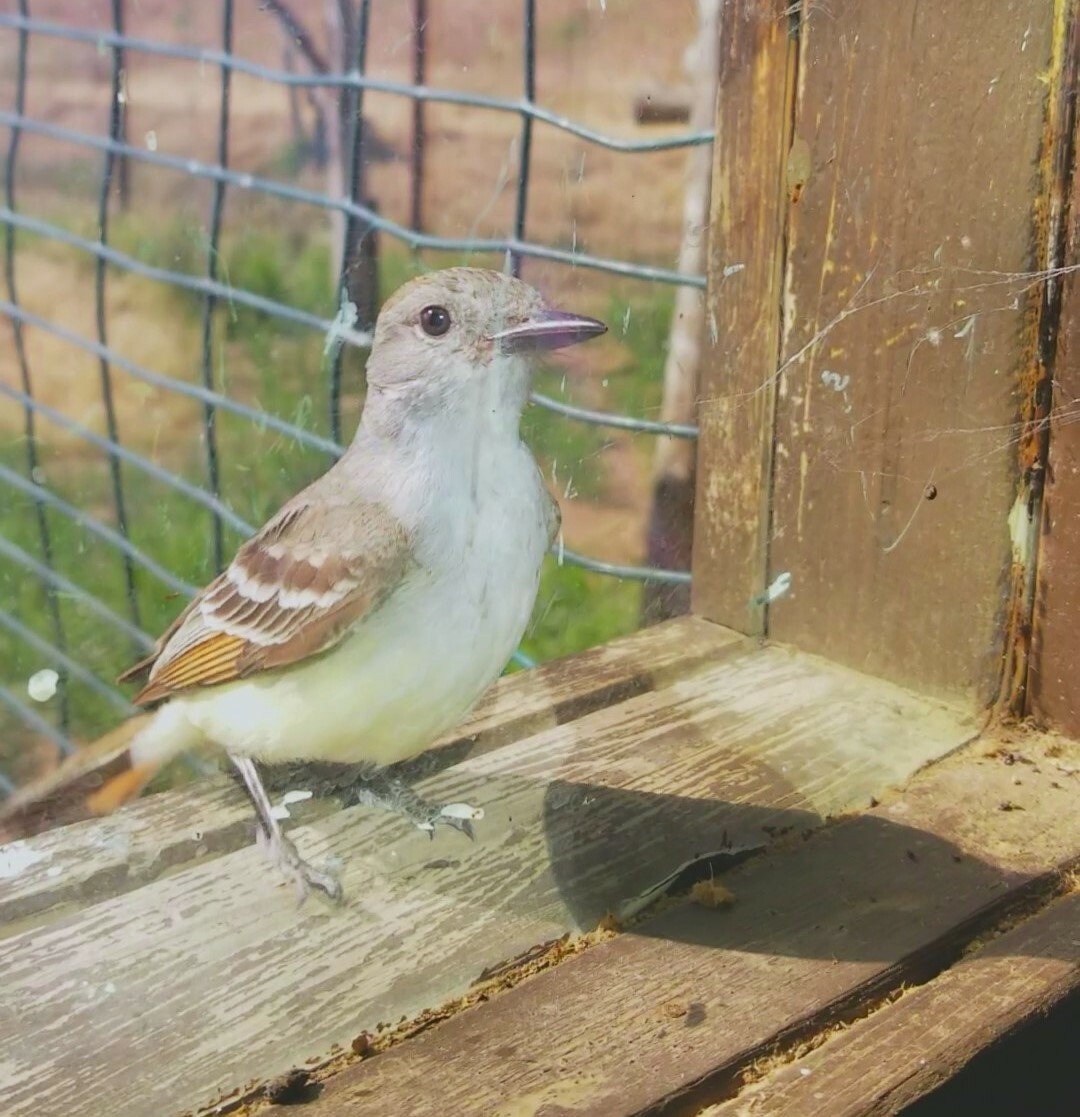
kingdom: Animalia
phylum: Chordata
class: Aves
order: Passeriformes
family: Tyrannidae
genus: Myiarchus
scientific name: Myiarchus cinerascens
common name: Ash-throated flycatcher
